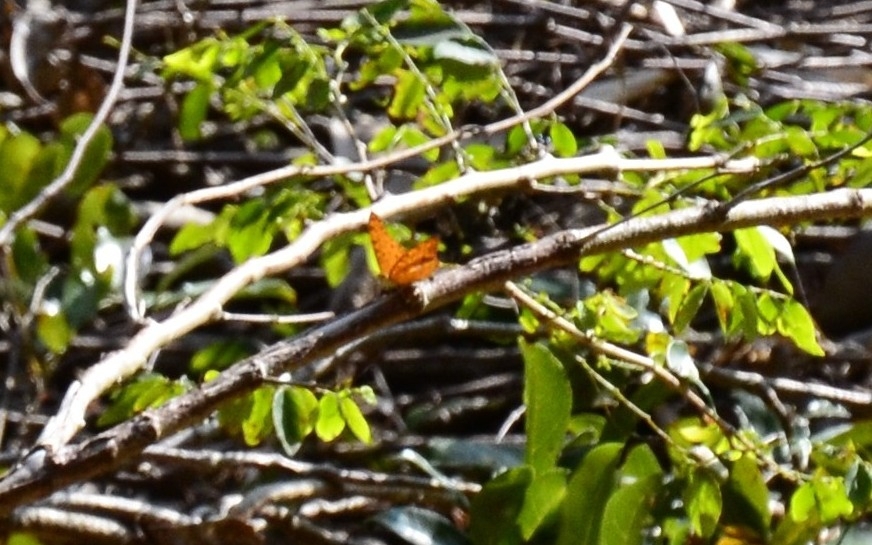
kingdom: Animalia
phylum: Arthropoda
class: Insecta
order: Lepidoptera
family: Nymphalidae
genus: Phalanta
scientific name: Phalanta phalantha
